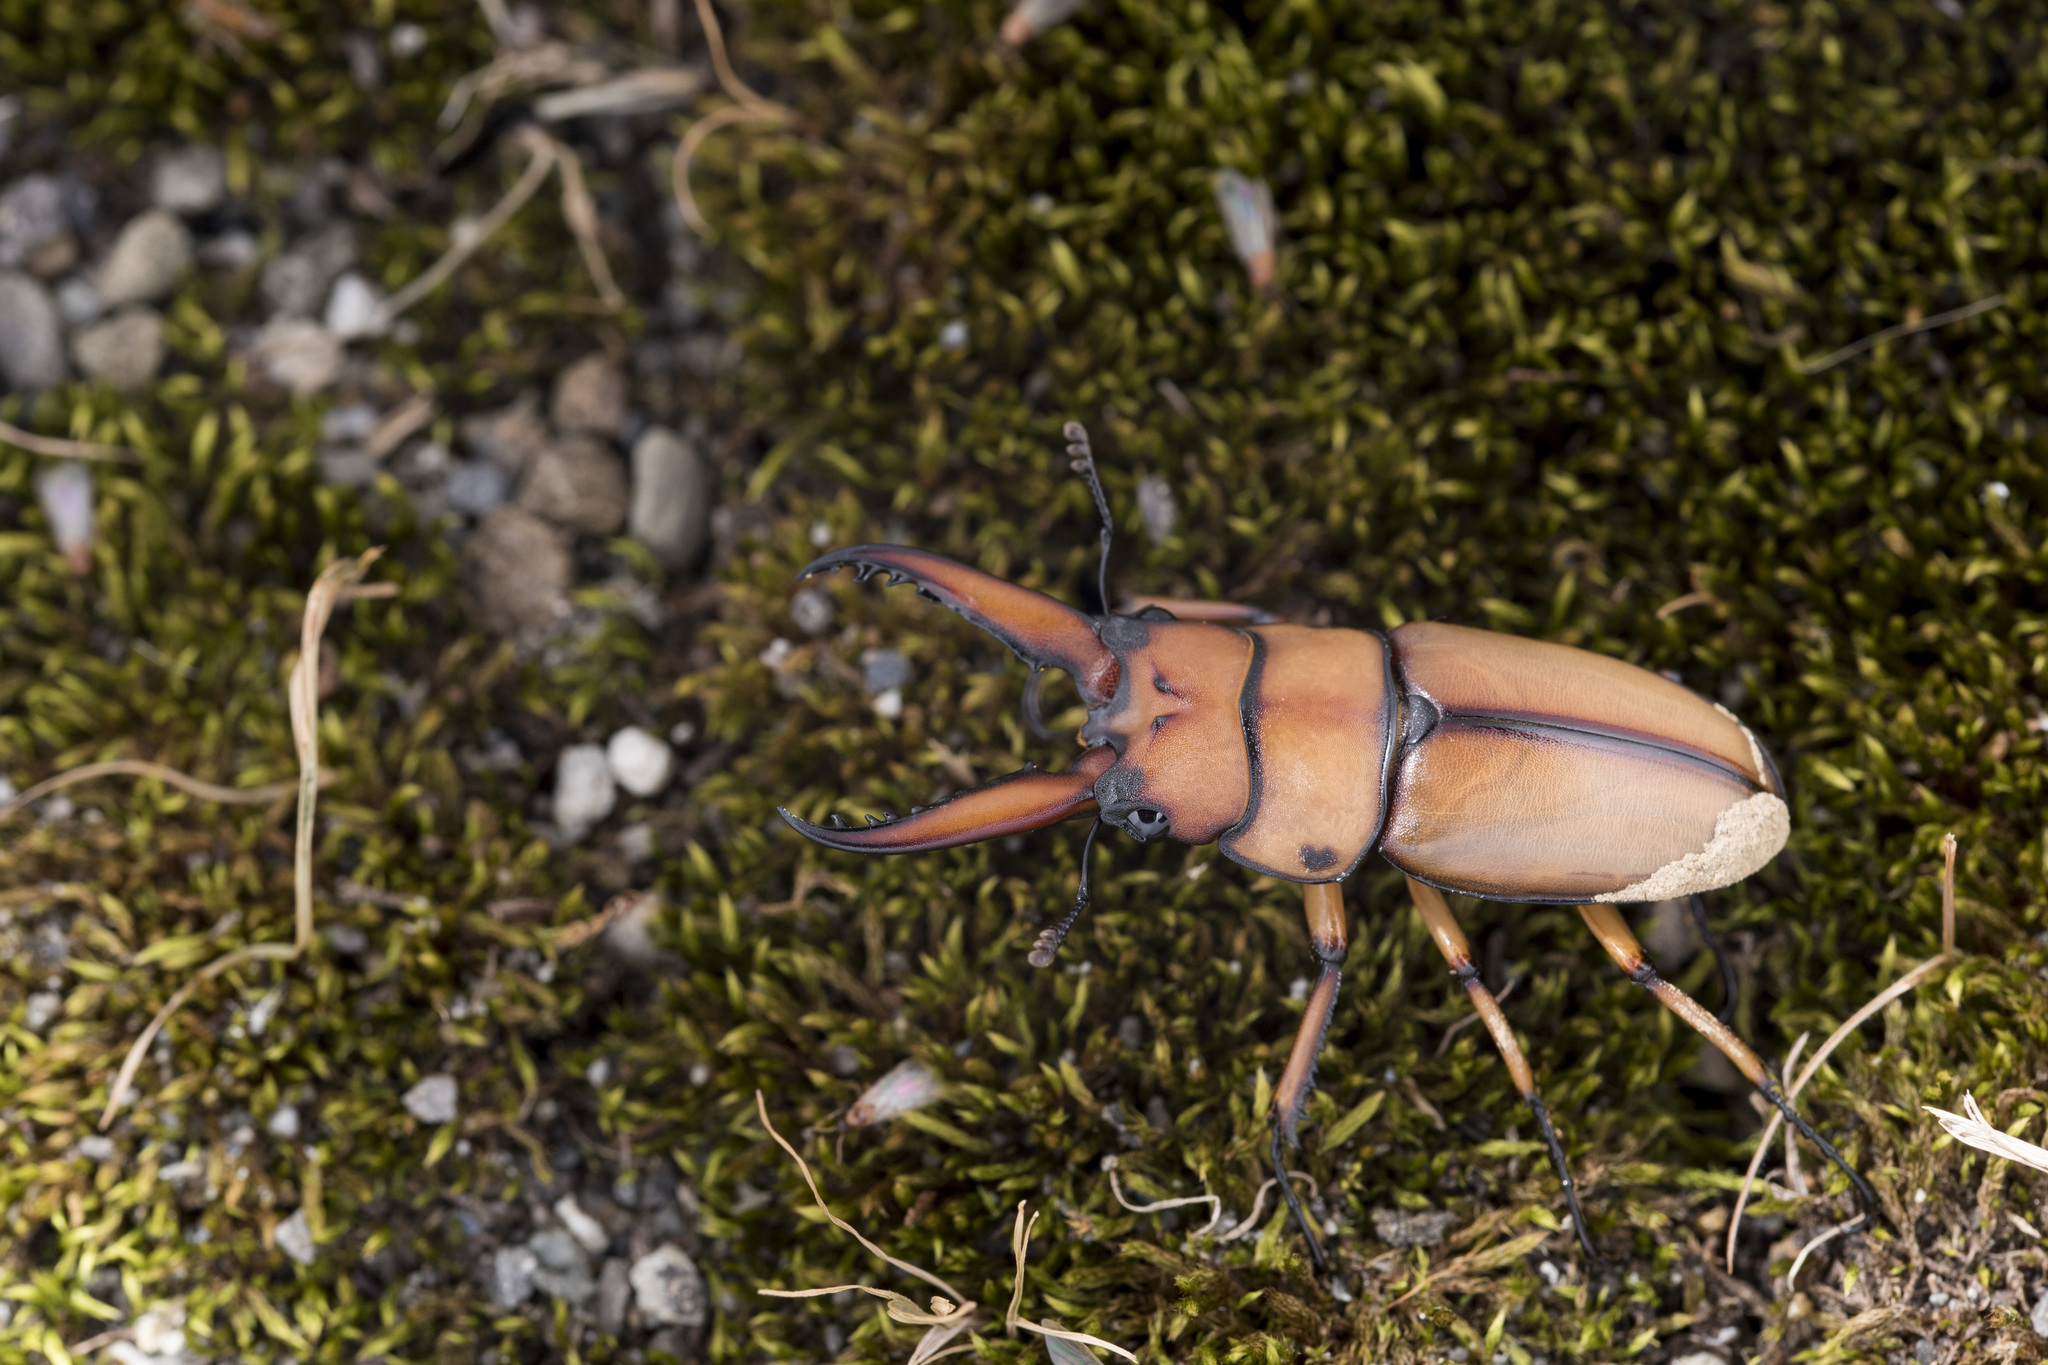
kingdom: Animalia
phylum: Arthropoda
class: Insecta
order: Coleoptera
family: Lucanidae
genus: Prosopocoilus
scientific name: Prosopocoilus astacoides
